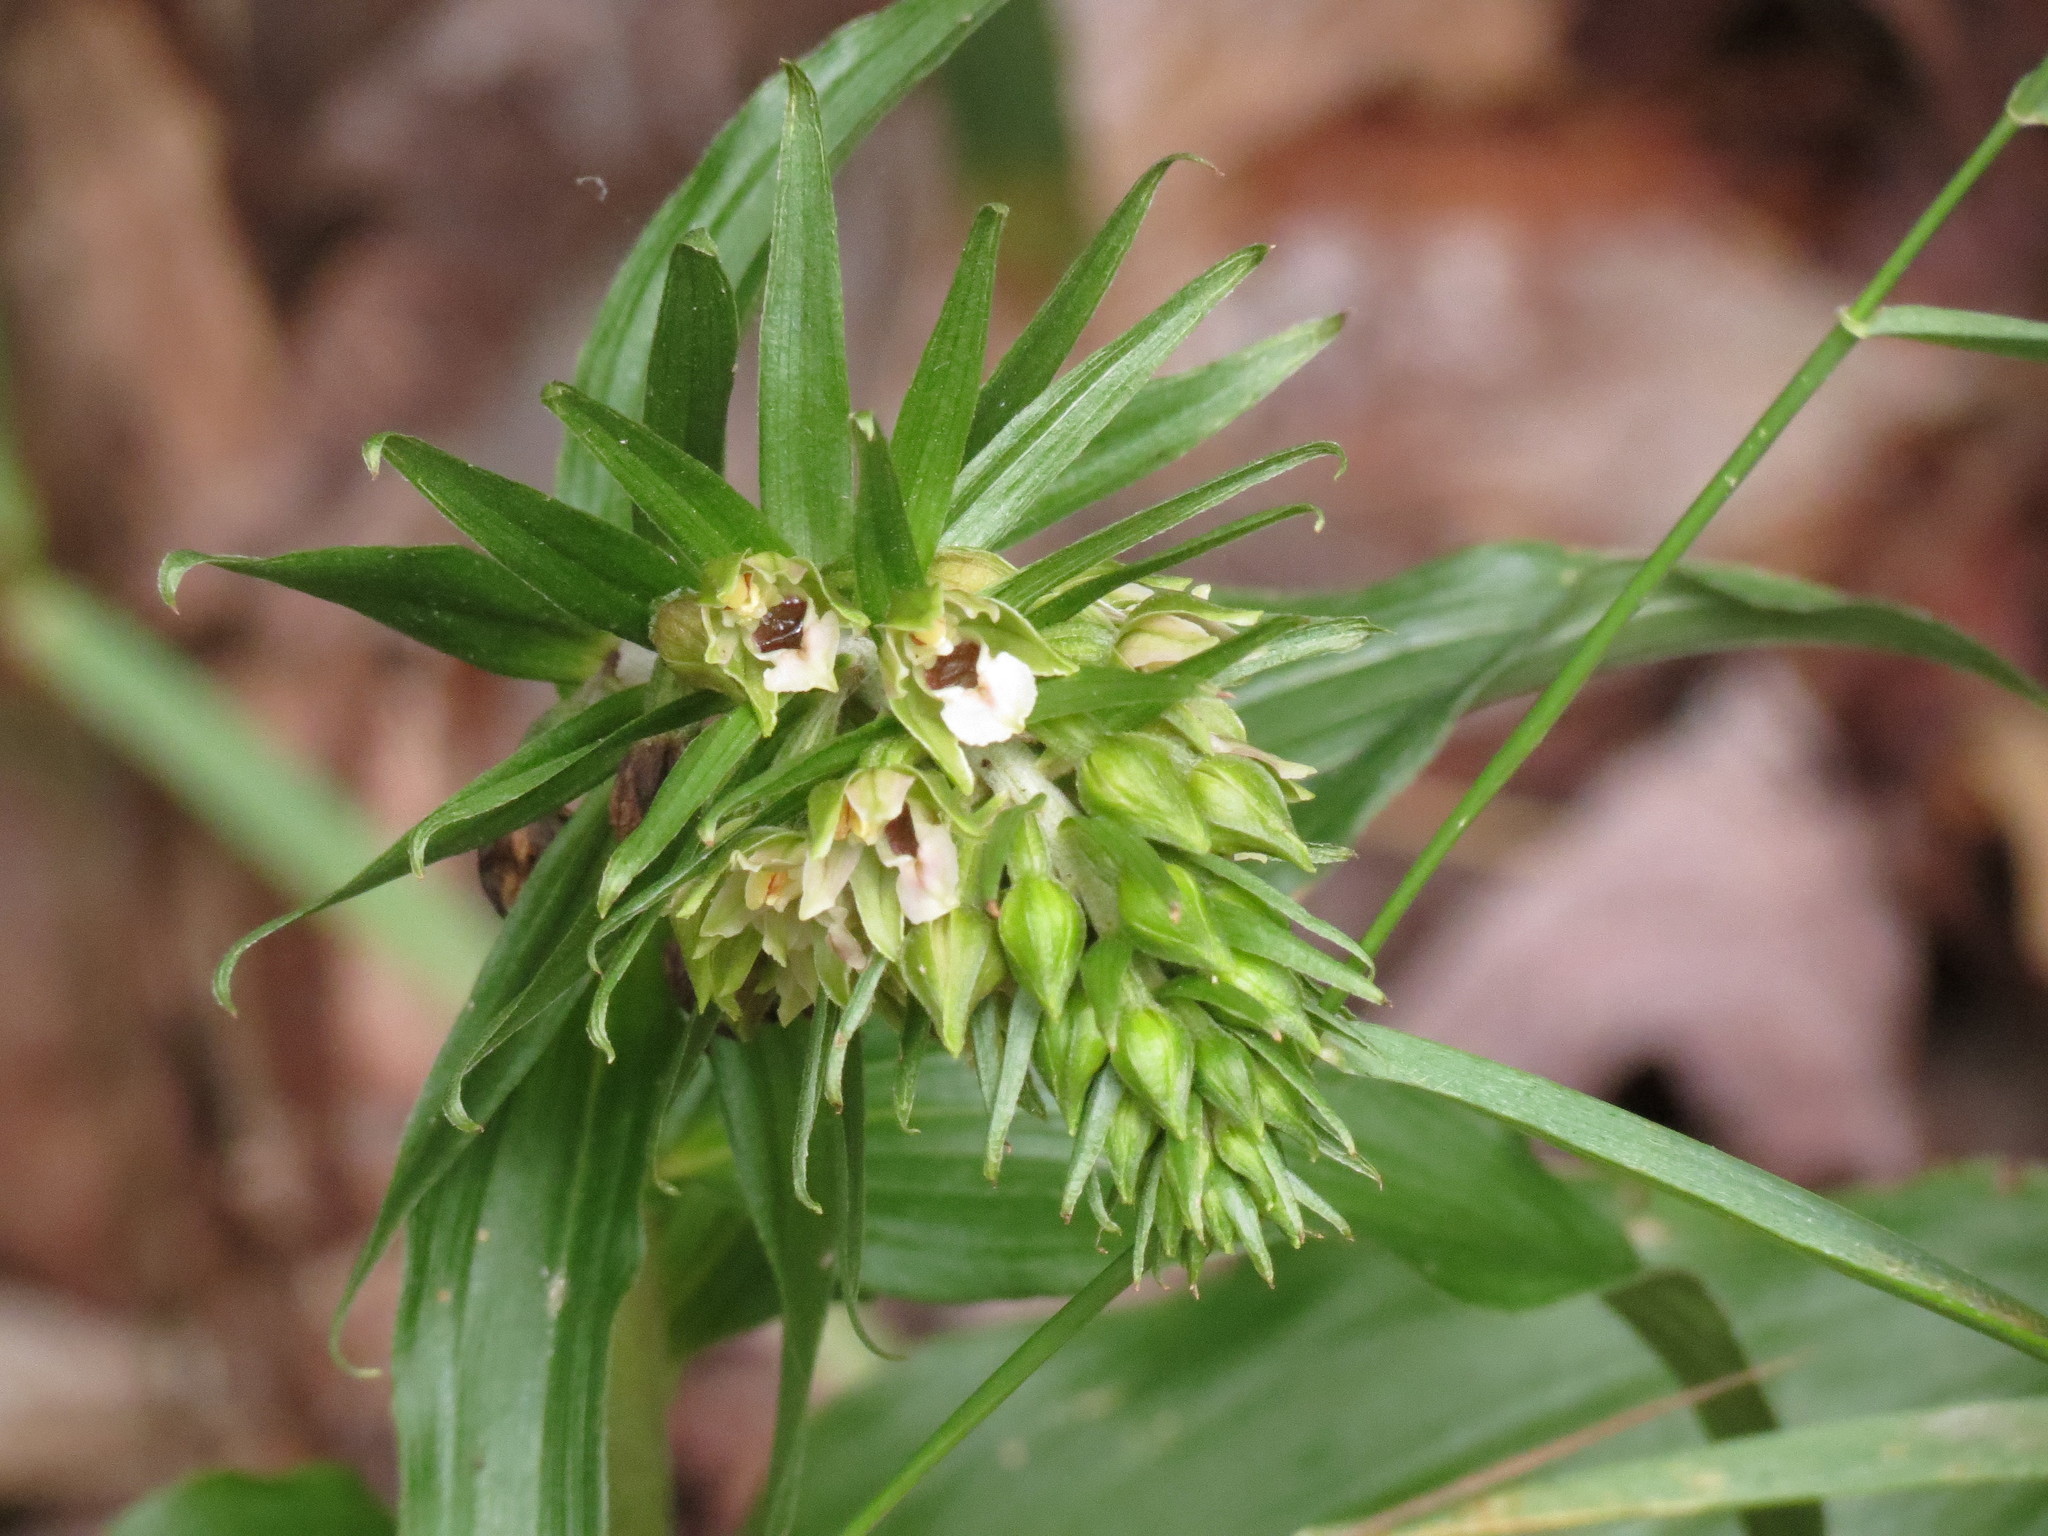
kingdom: Plantae
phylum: Tracheophyta
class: Liliopsida
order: Asparagales
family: Orchidaceae
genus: Epipactis
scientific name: Epipactis helleborine
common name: Broad-leaved helleborine
